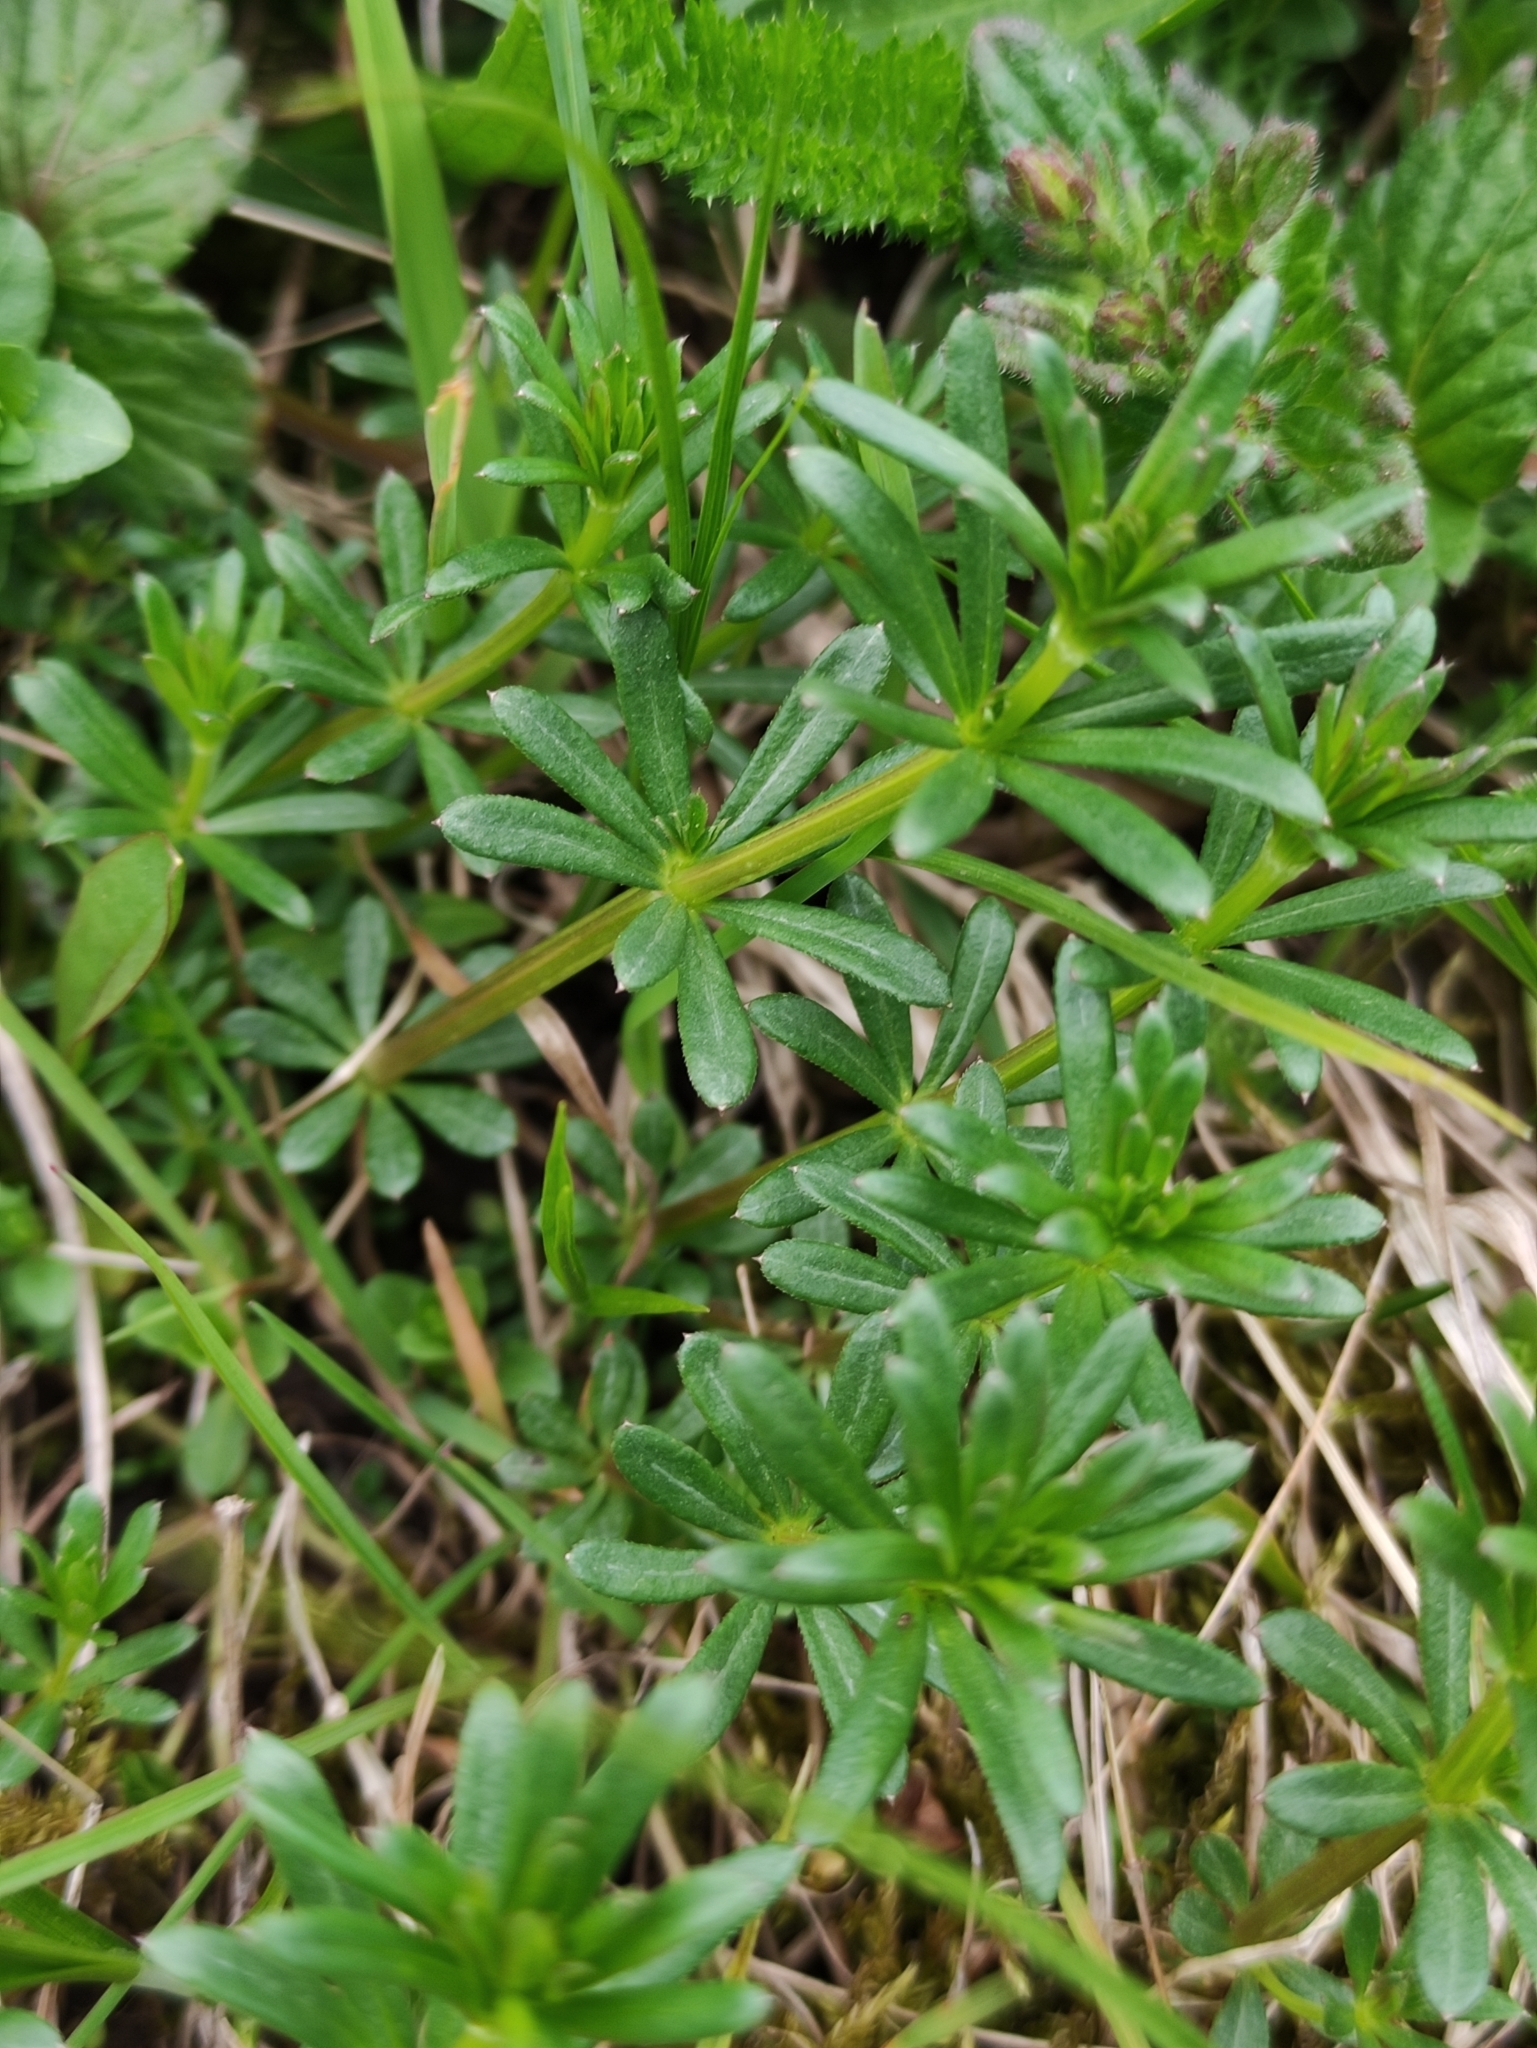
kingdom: Plantae
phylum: Tracheophyta
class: Magnoliopsida
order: Gentianales
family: Rubiaceae
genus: Galium
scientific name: Galium mollugo
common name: Hedge bedstraw
